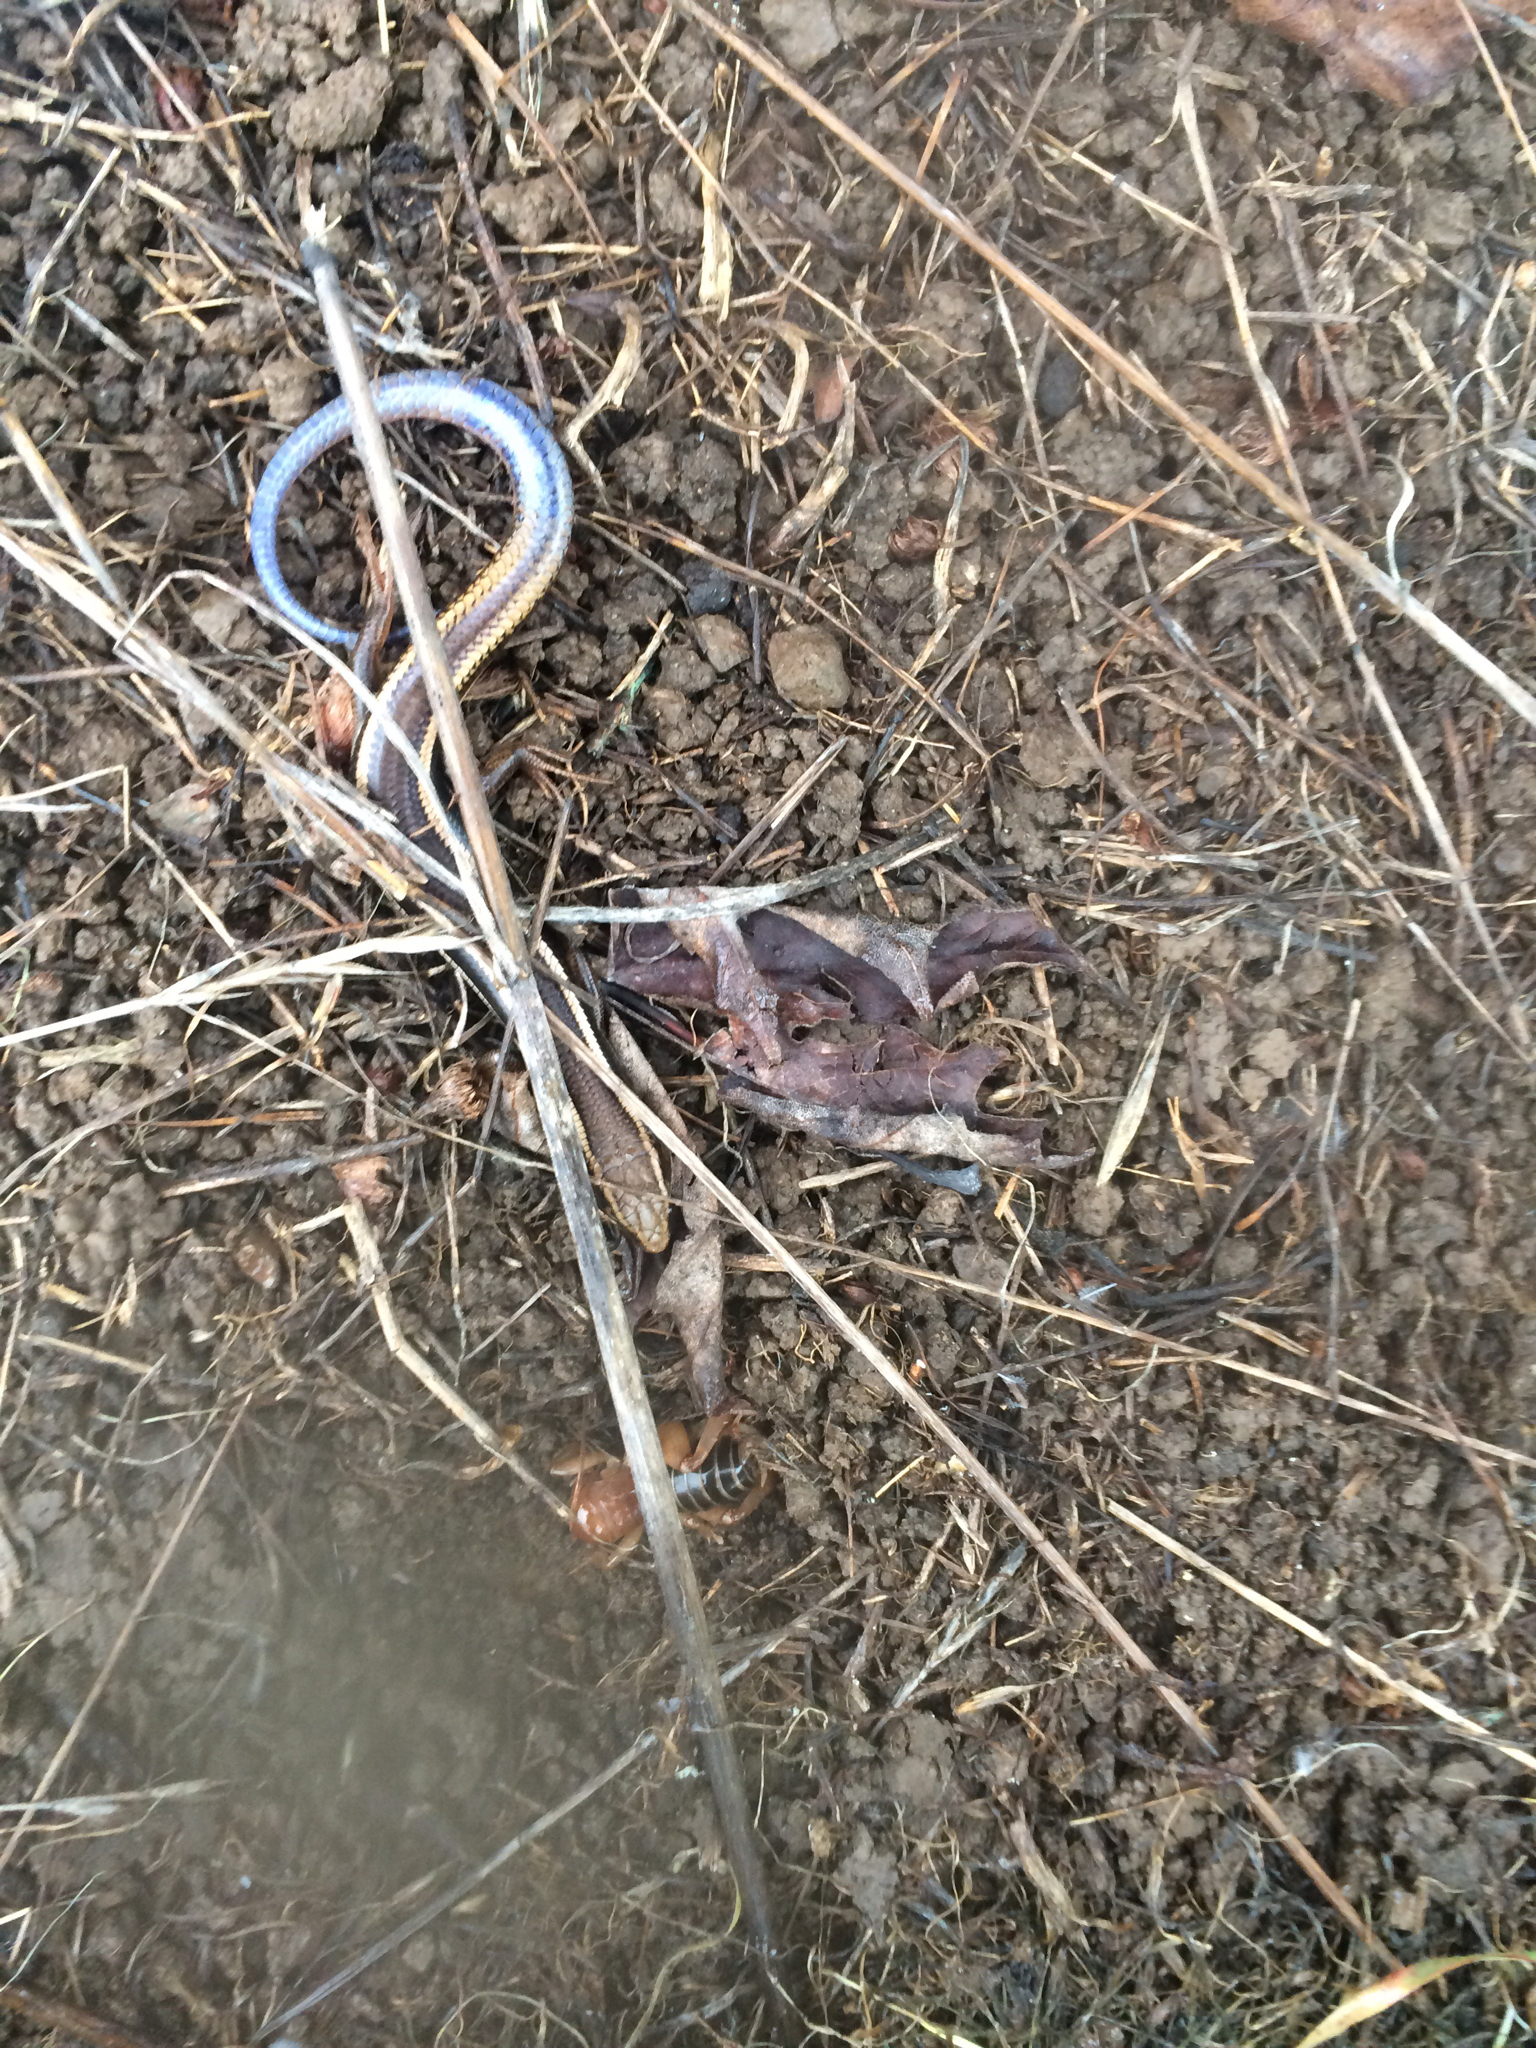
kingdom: Animalia
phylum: Chordata
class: Squamata
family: Scincidae
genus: Plestiodon
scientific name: Plestiodon skiltonianus
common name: Coronado island skink [interparietalis]
